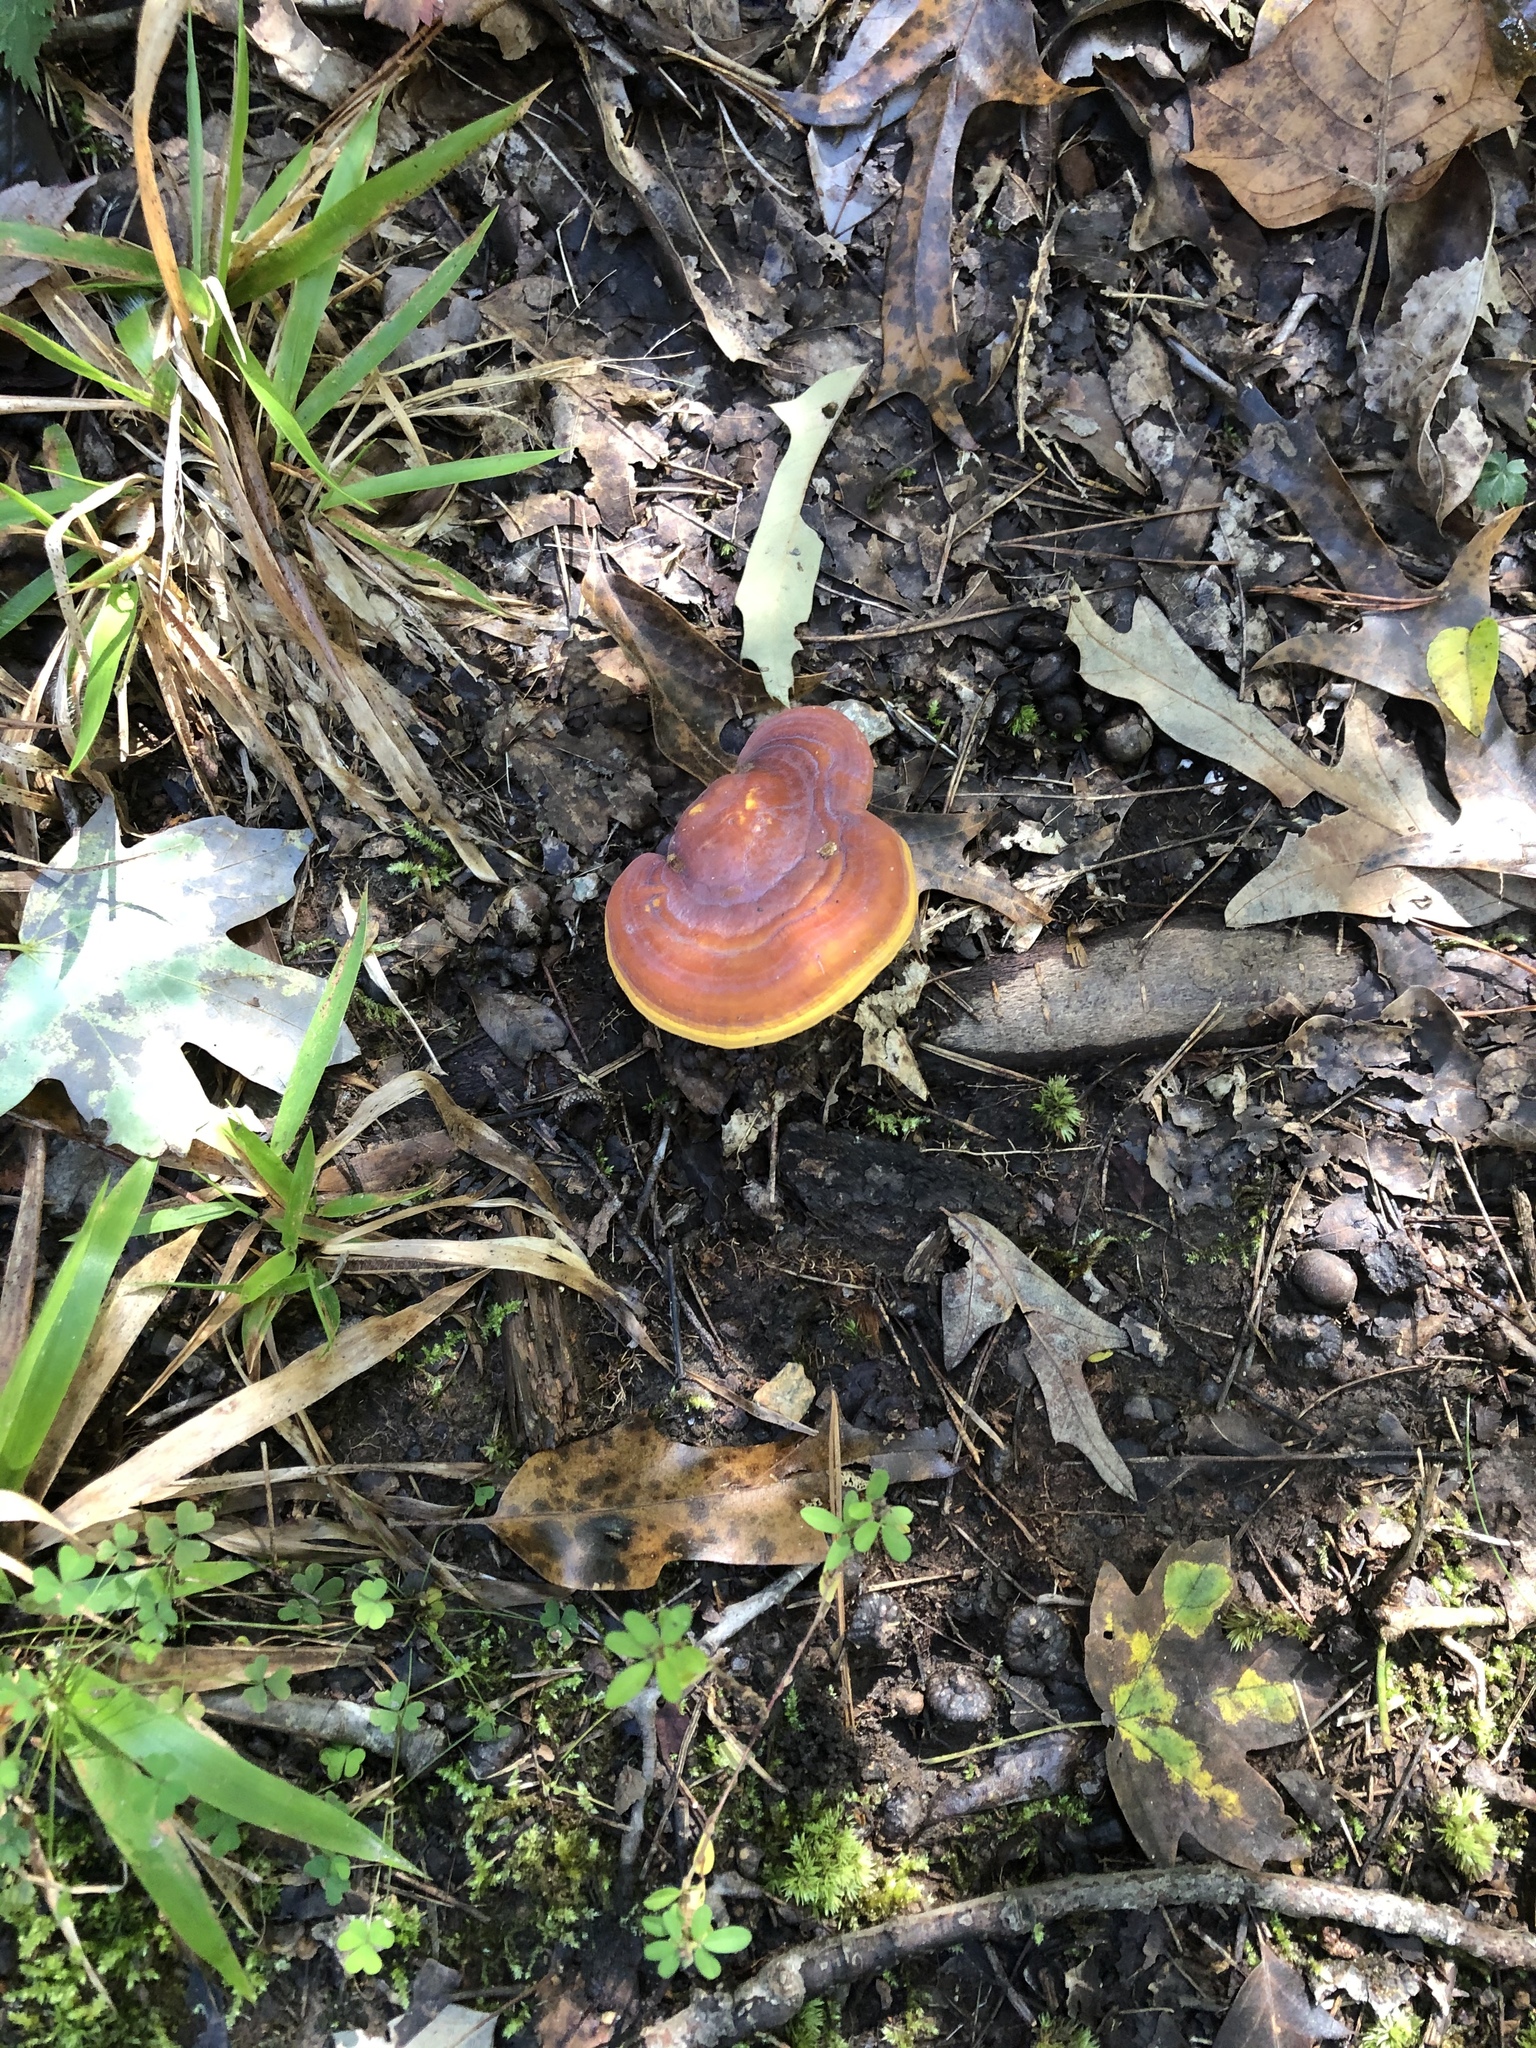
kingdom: Fungi
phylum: Basidiomycota
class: Agaricomycetes
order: Polyporales
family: Polyporaceae
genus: Ganoderma
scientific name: Ganoderma curtisii
